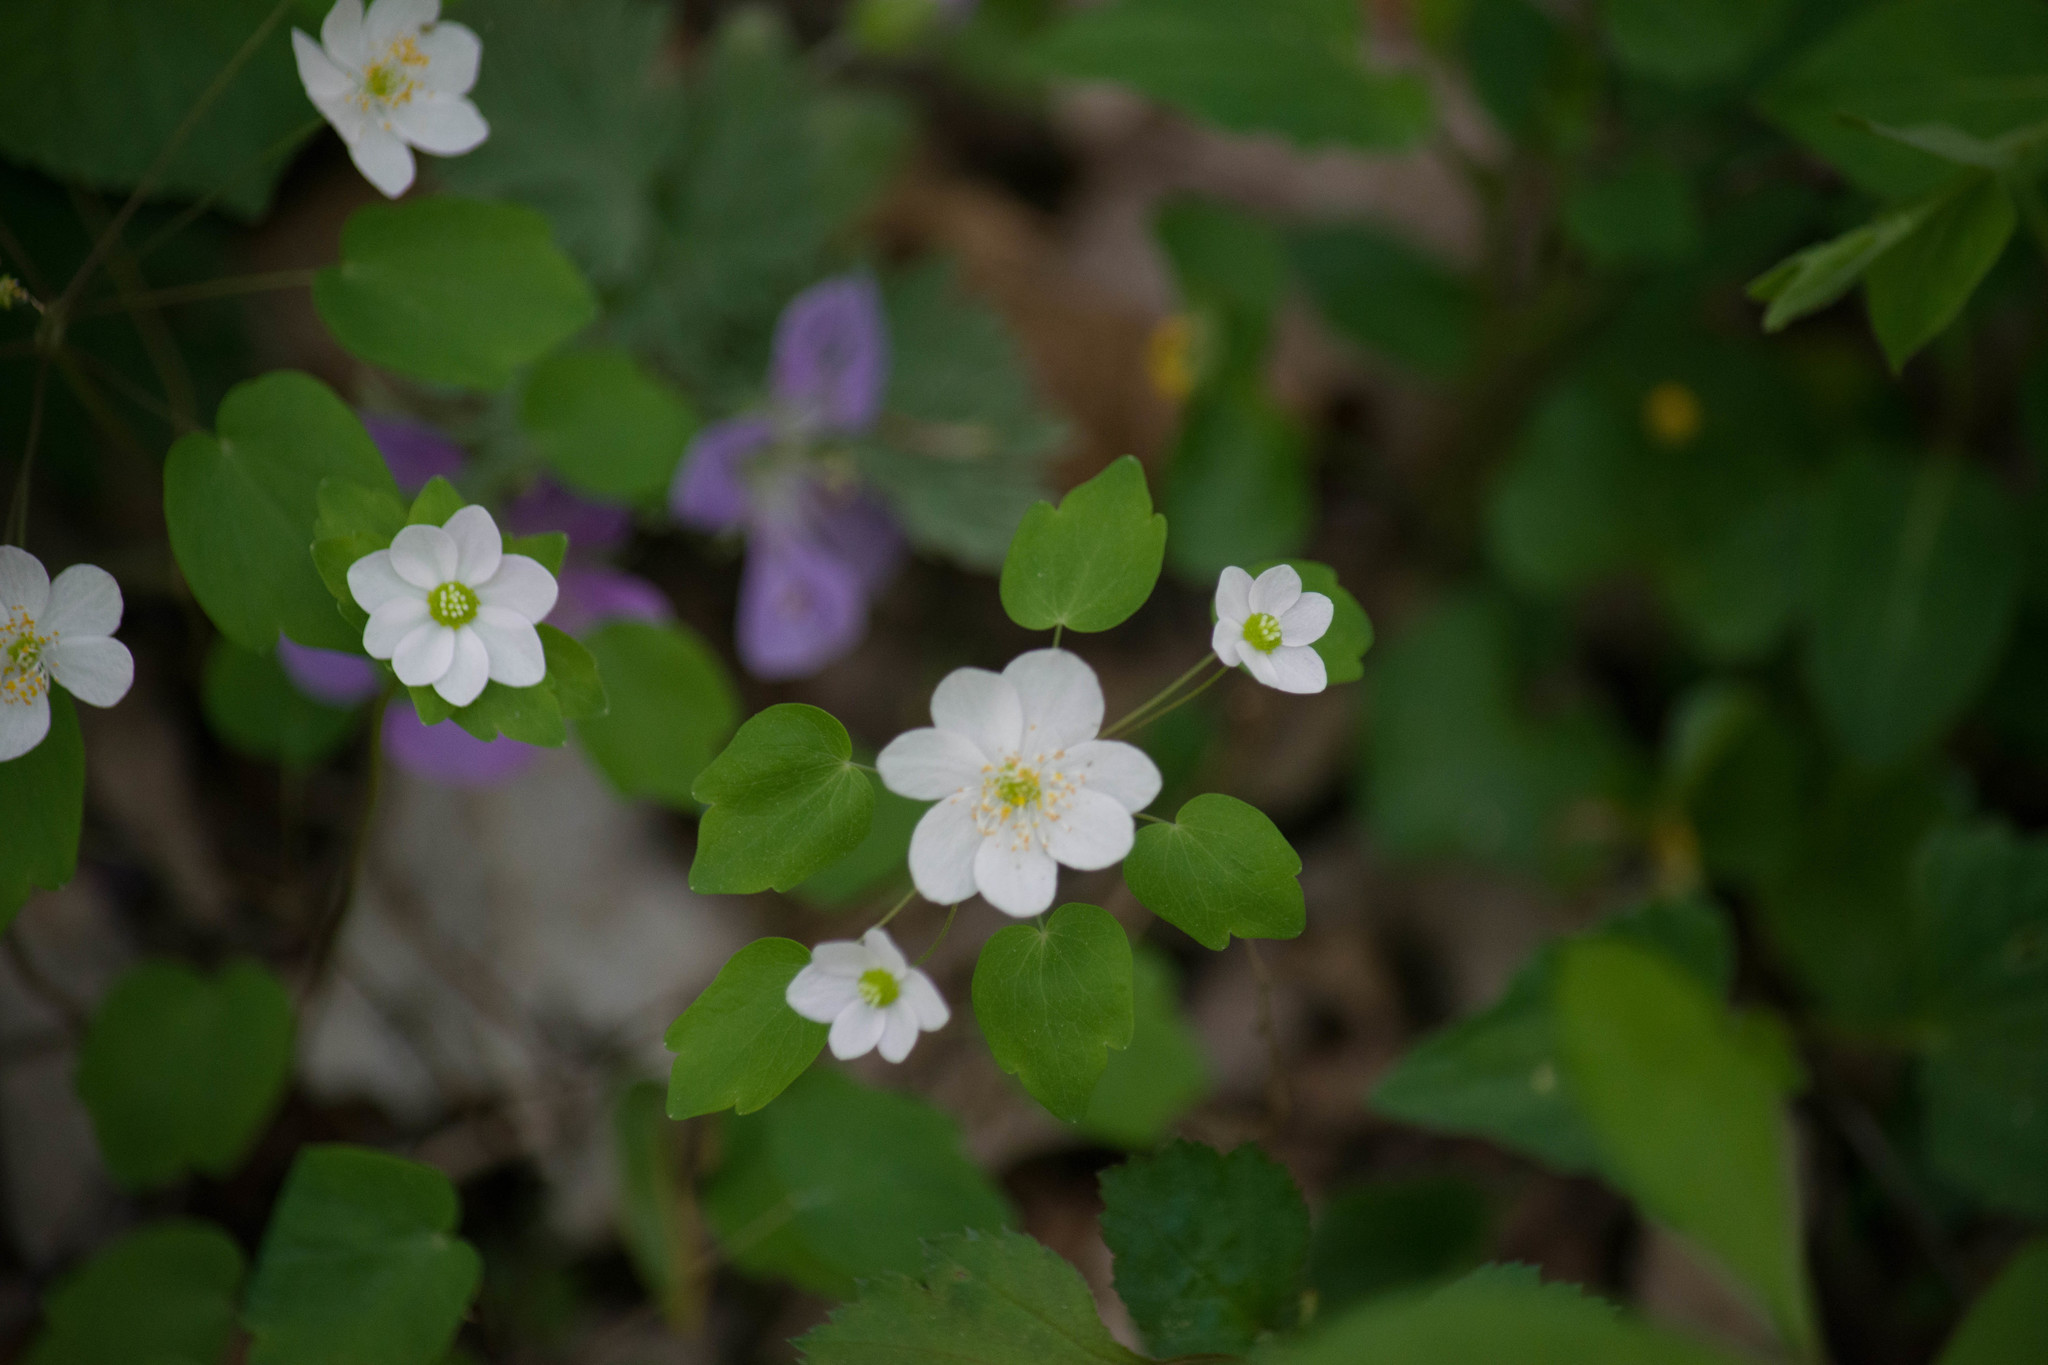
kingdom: Plantae
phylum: Tracheophyta
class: Magnoliopsida
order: Ranunculales
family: Ranunculaceae
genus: Thalictrum
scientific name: Thalictrum thalictroides
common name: Rue-anemone
